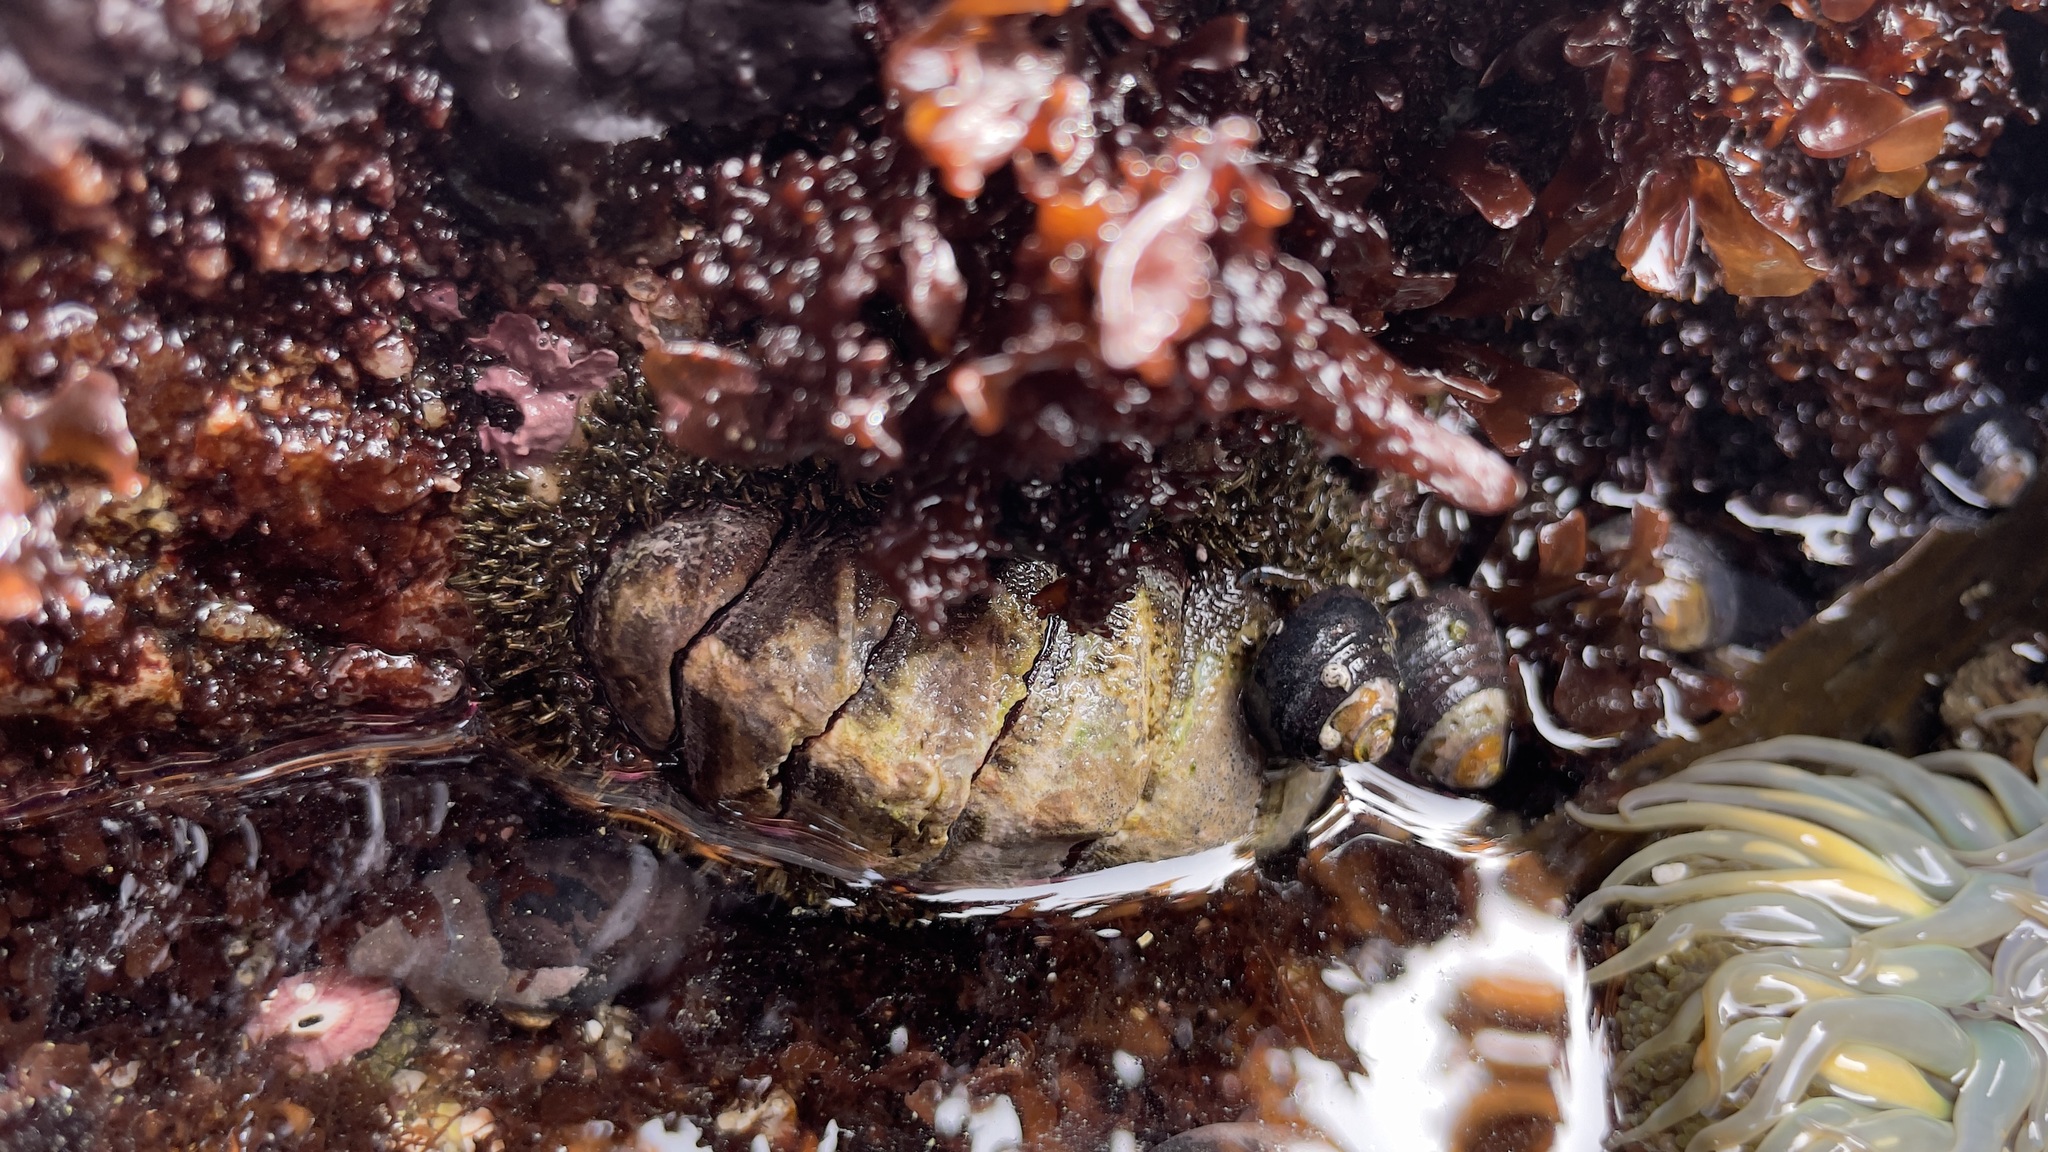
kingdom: Animalia
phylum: Mollusca
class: Polyplacophora
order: Chitonida
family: Mopaliidae
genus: Mopalia
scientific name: Mopalia muscosa
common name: Mossy chiton
